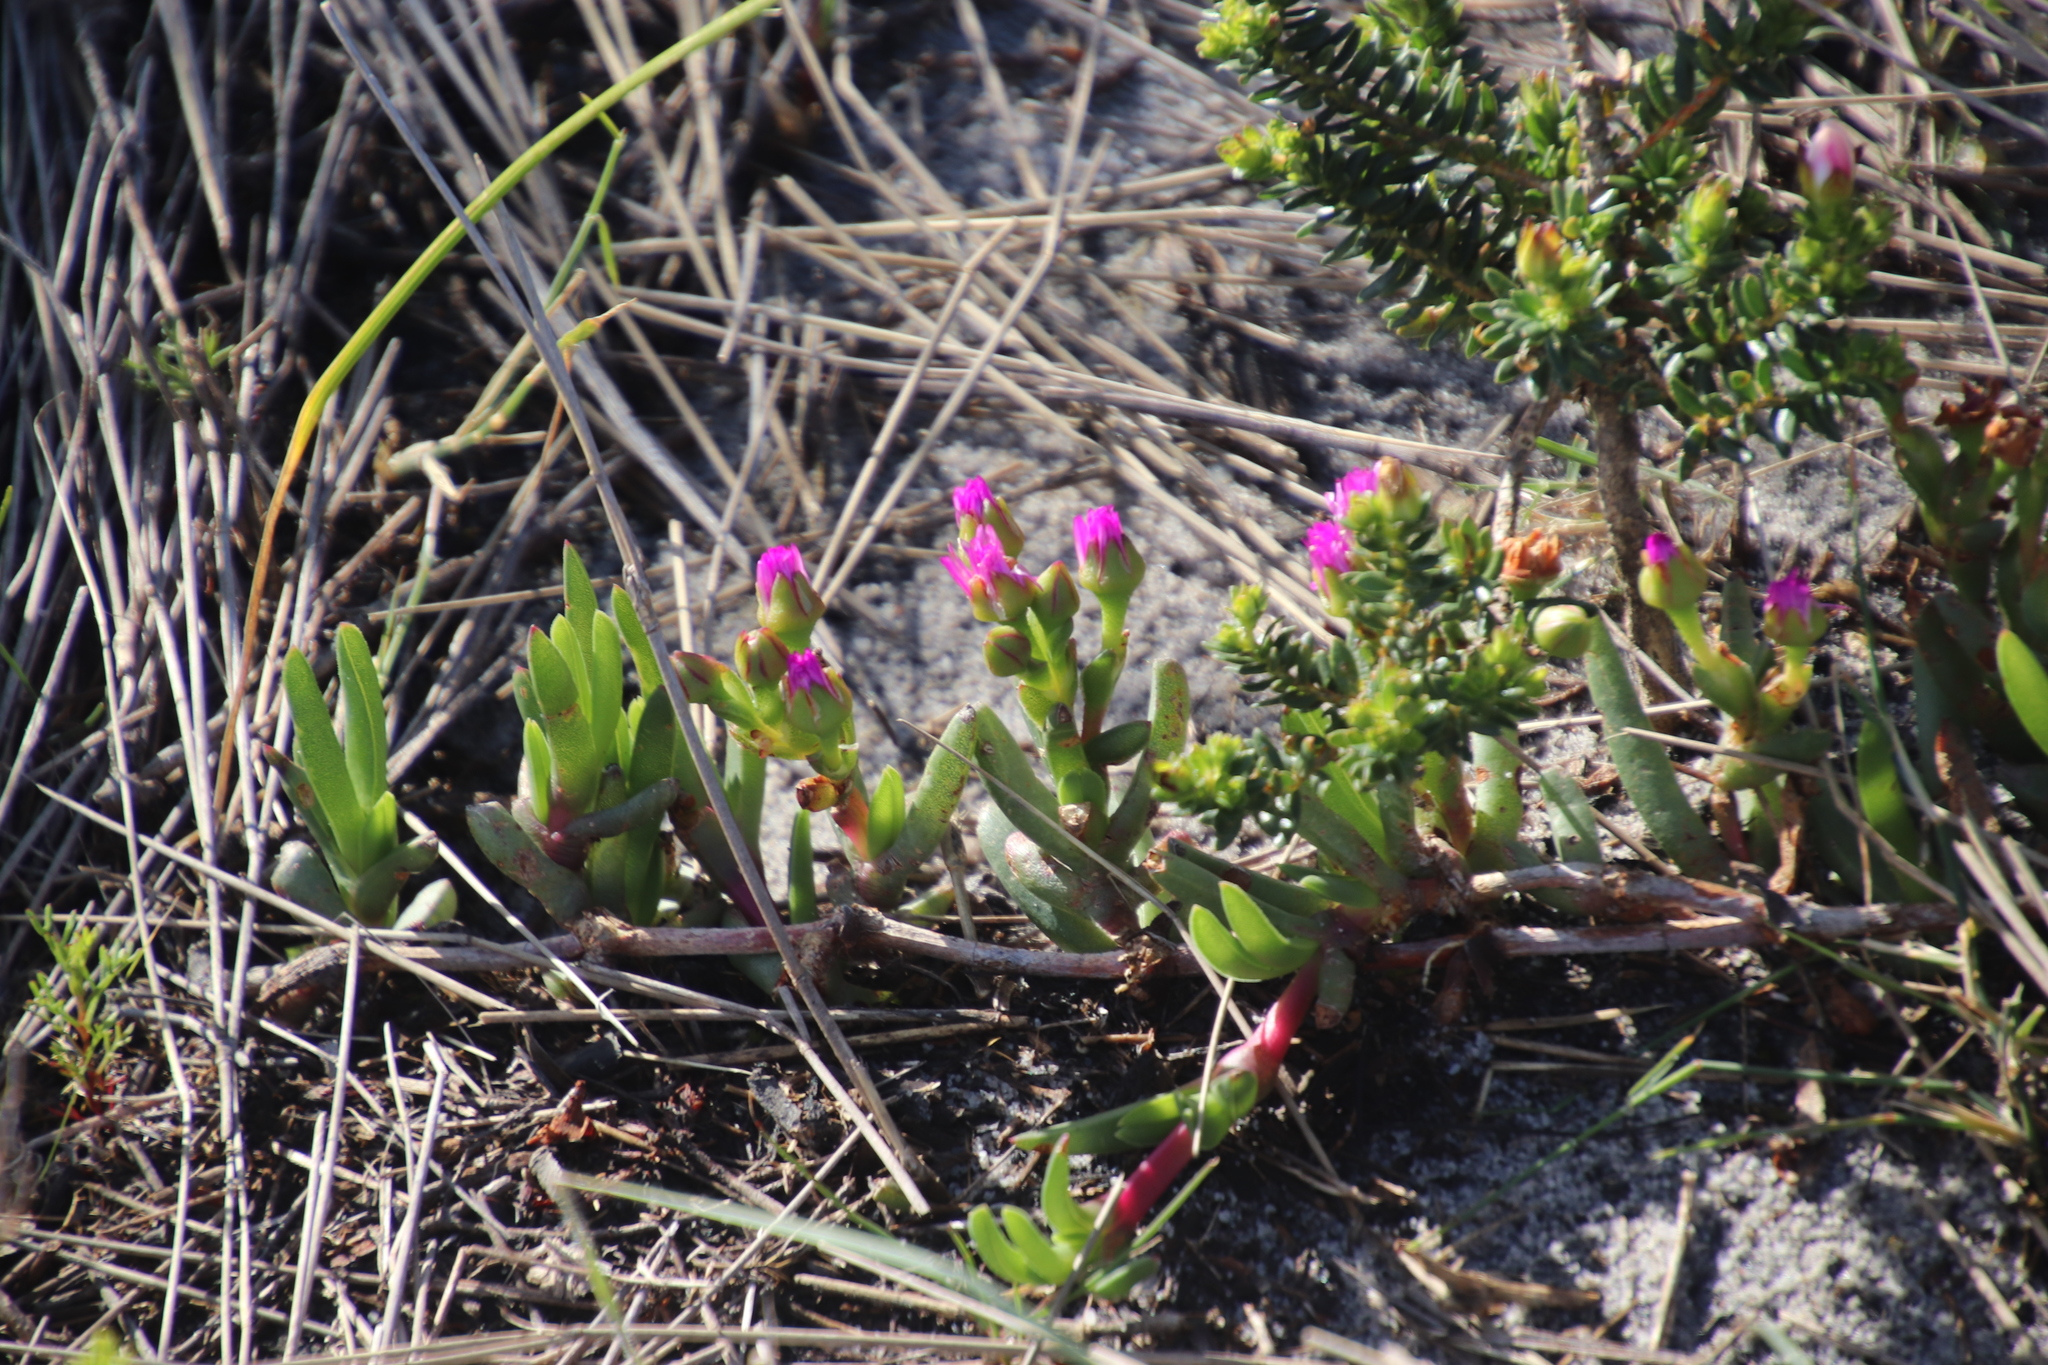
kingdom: Plantae
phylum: Tracheophyta
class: Magnoliopsida
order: Caryophyllales
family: Aizoaceae
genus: Ruschia
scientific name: Ruschia sarmentosa
